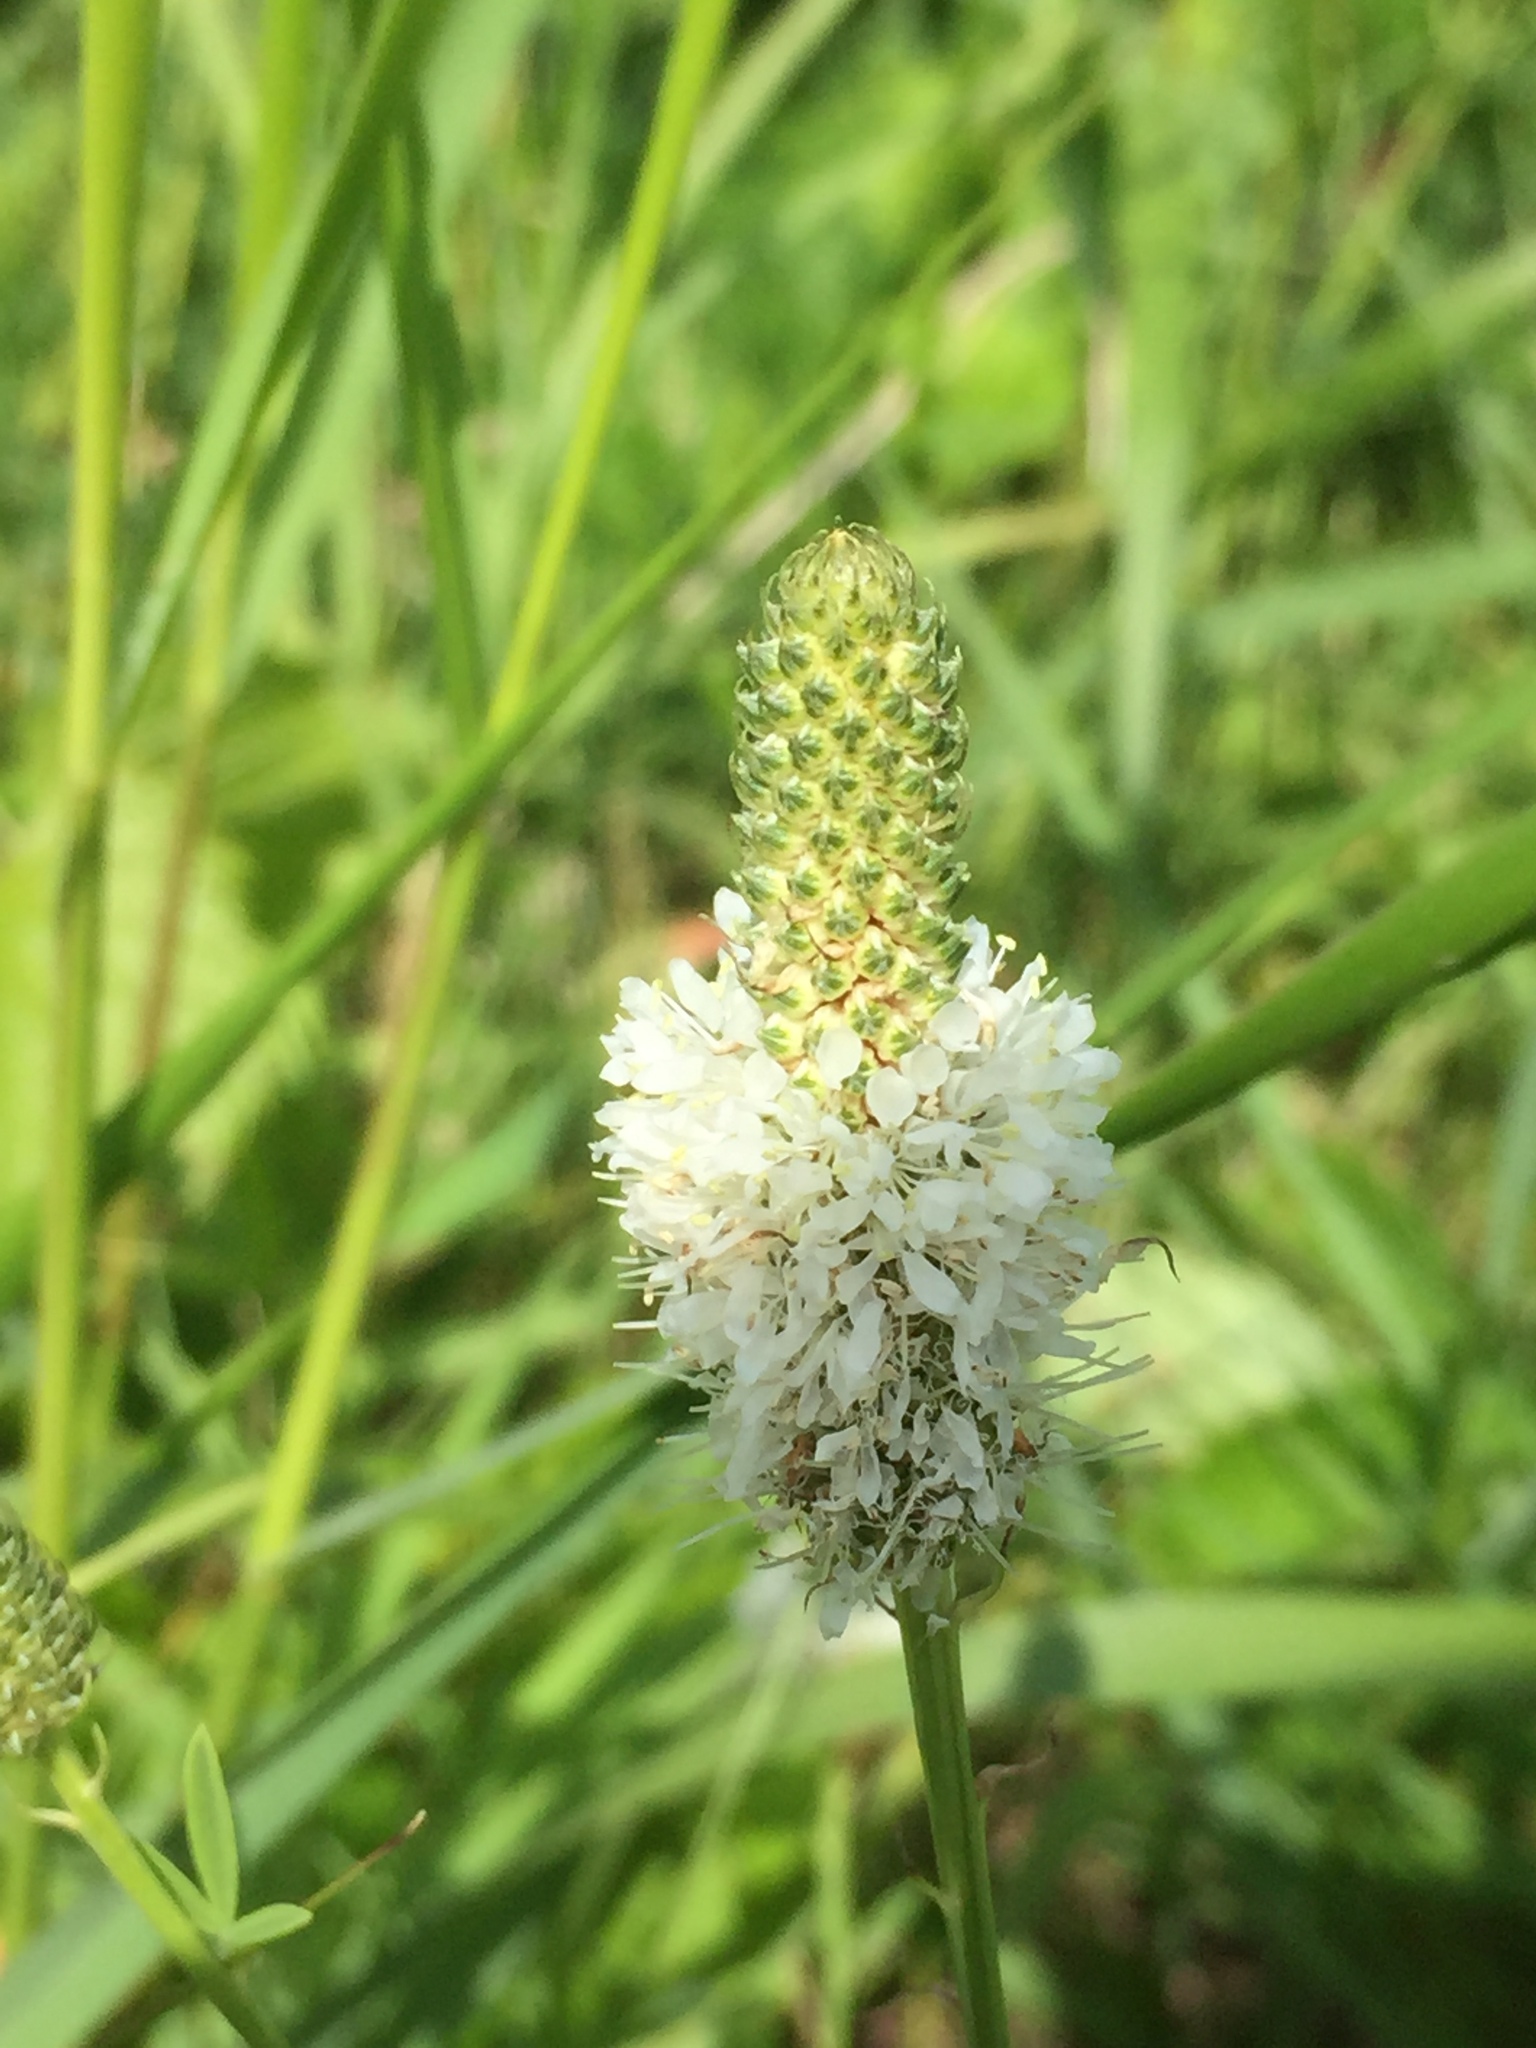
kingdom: Plantae
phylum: Tracheophyta
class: Magnoliopsida
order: Fabales
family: Fabaceae
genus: Dalea
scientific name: Dalea candida
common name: White prairie-clover
